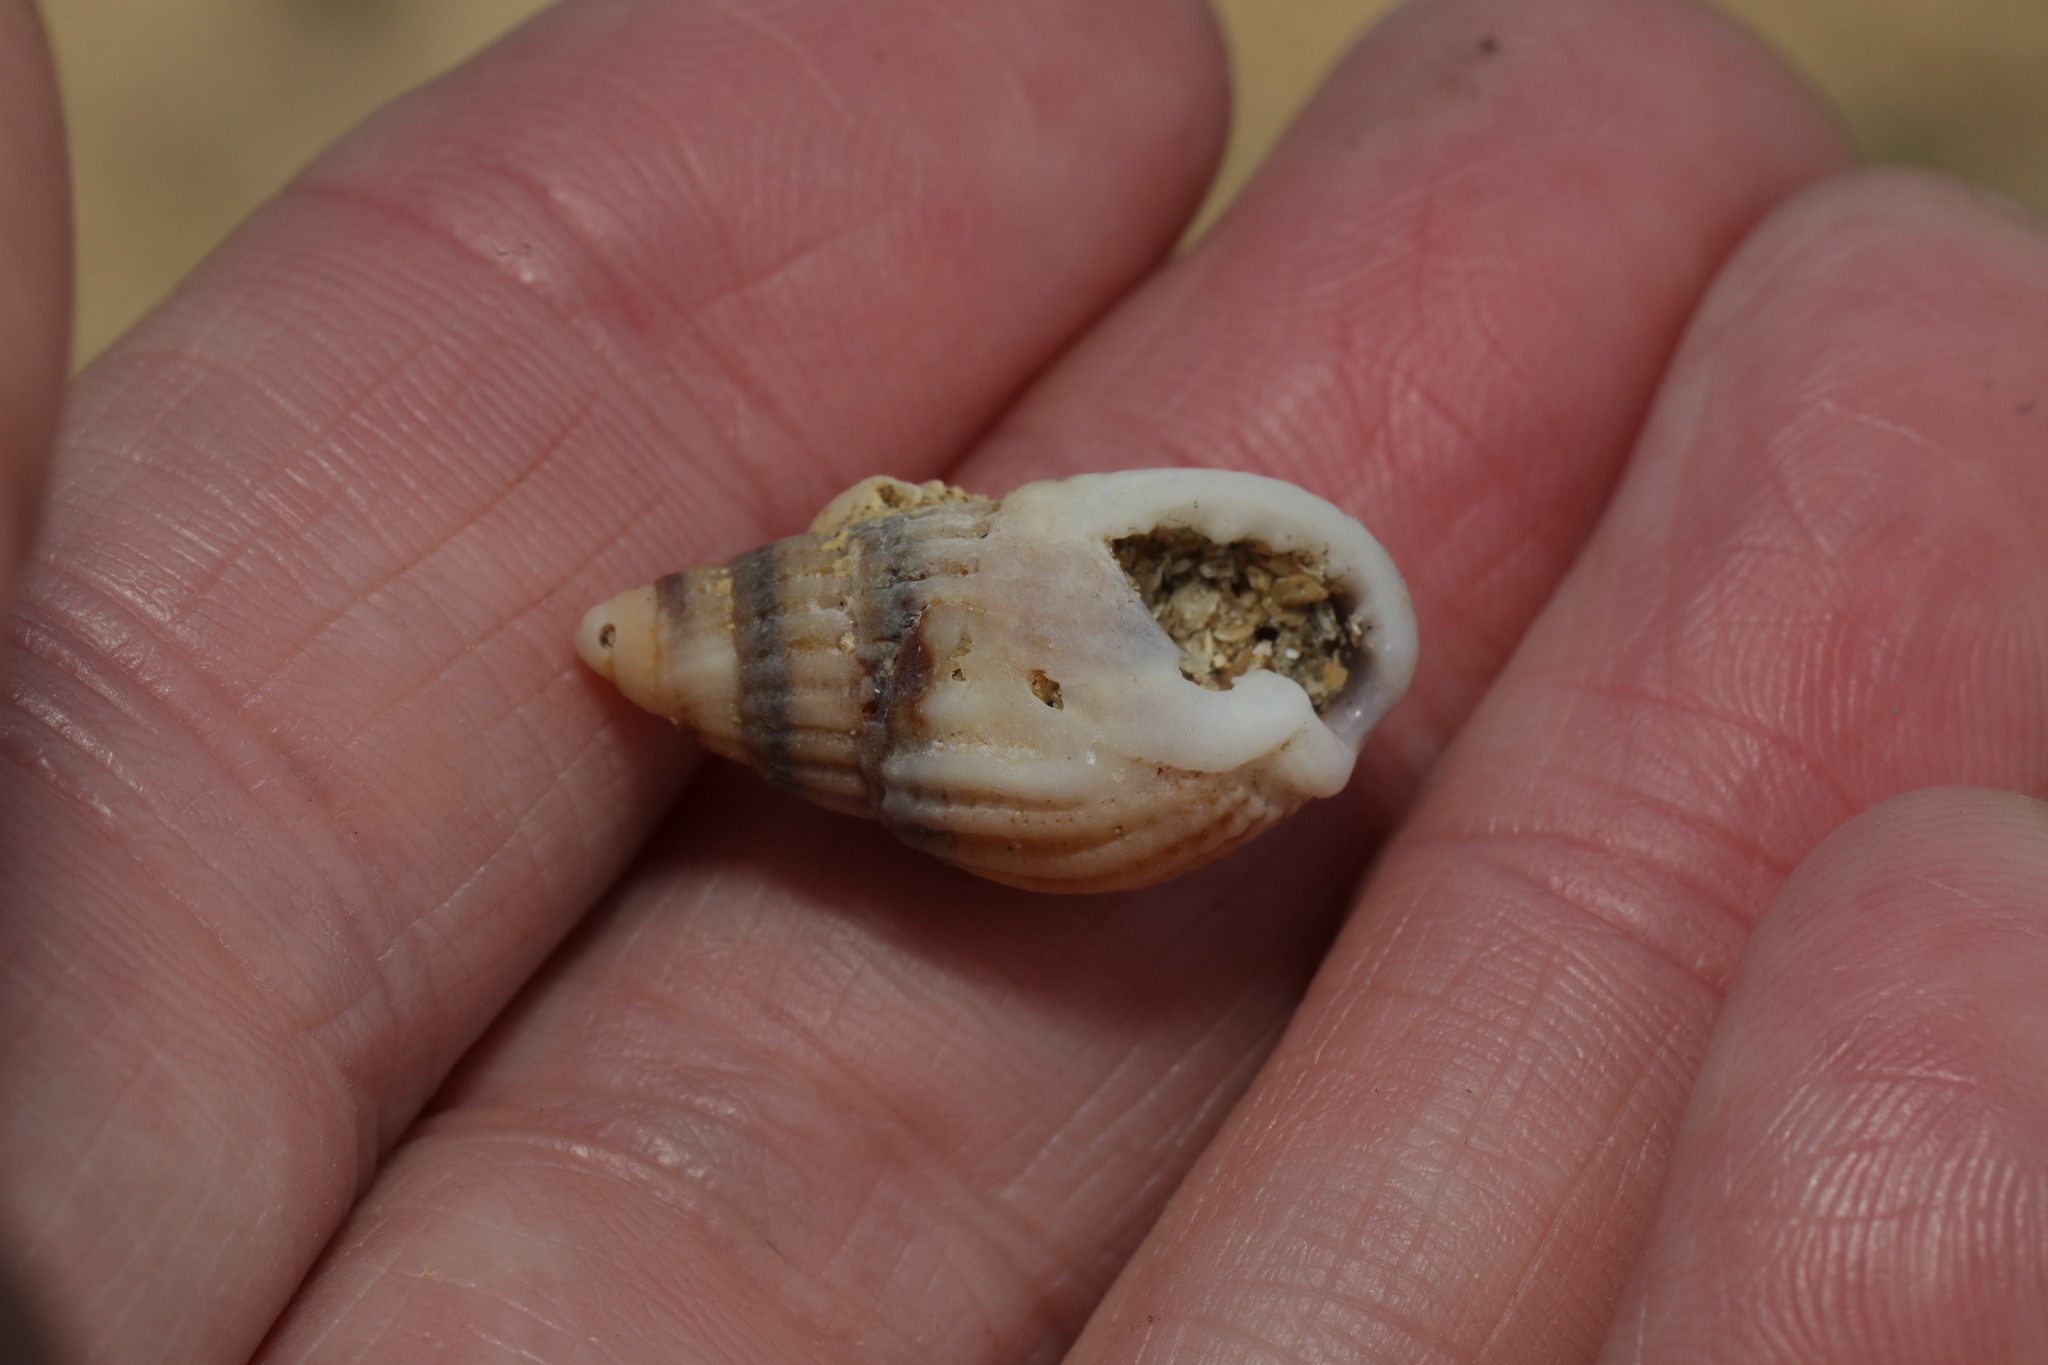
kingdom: Animalia
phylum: Mollusca
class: Gastropoda
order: Neogastropoda
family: Nassariidae
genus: Tritia
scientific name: Tritia reticulata
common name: Netted dog whelk
